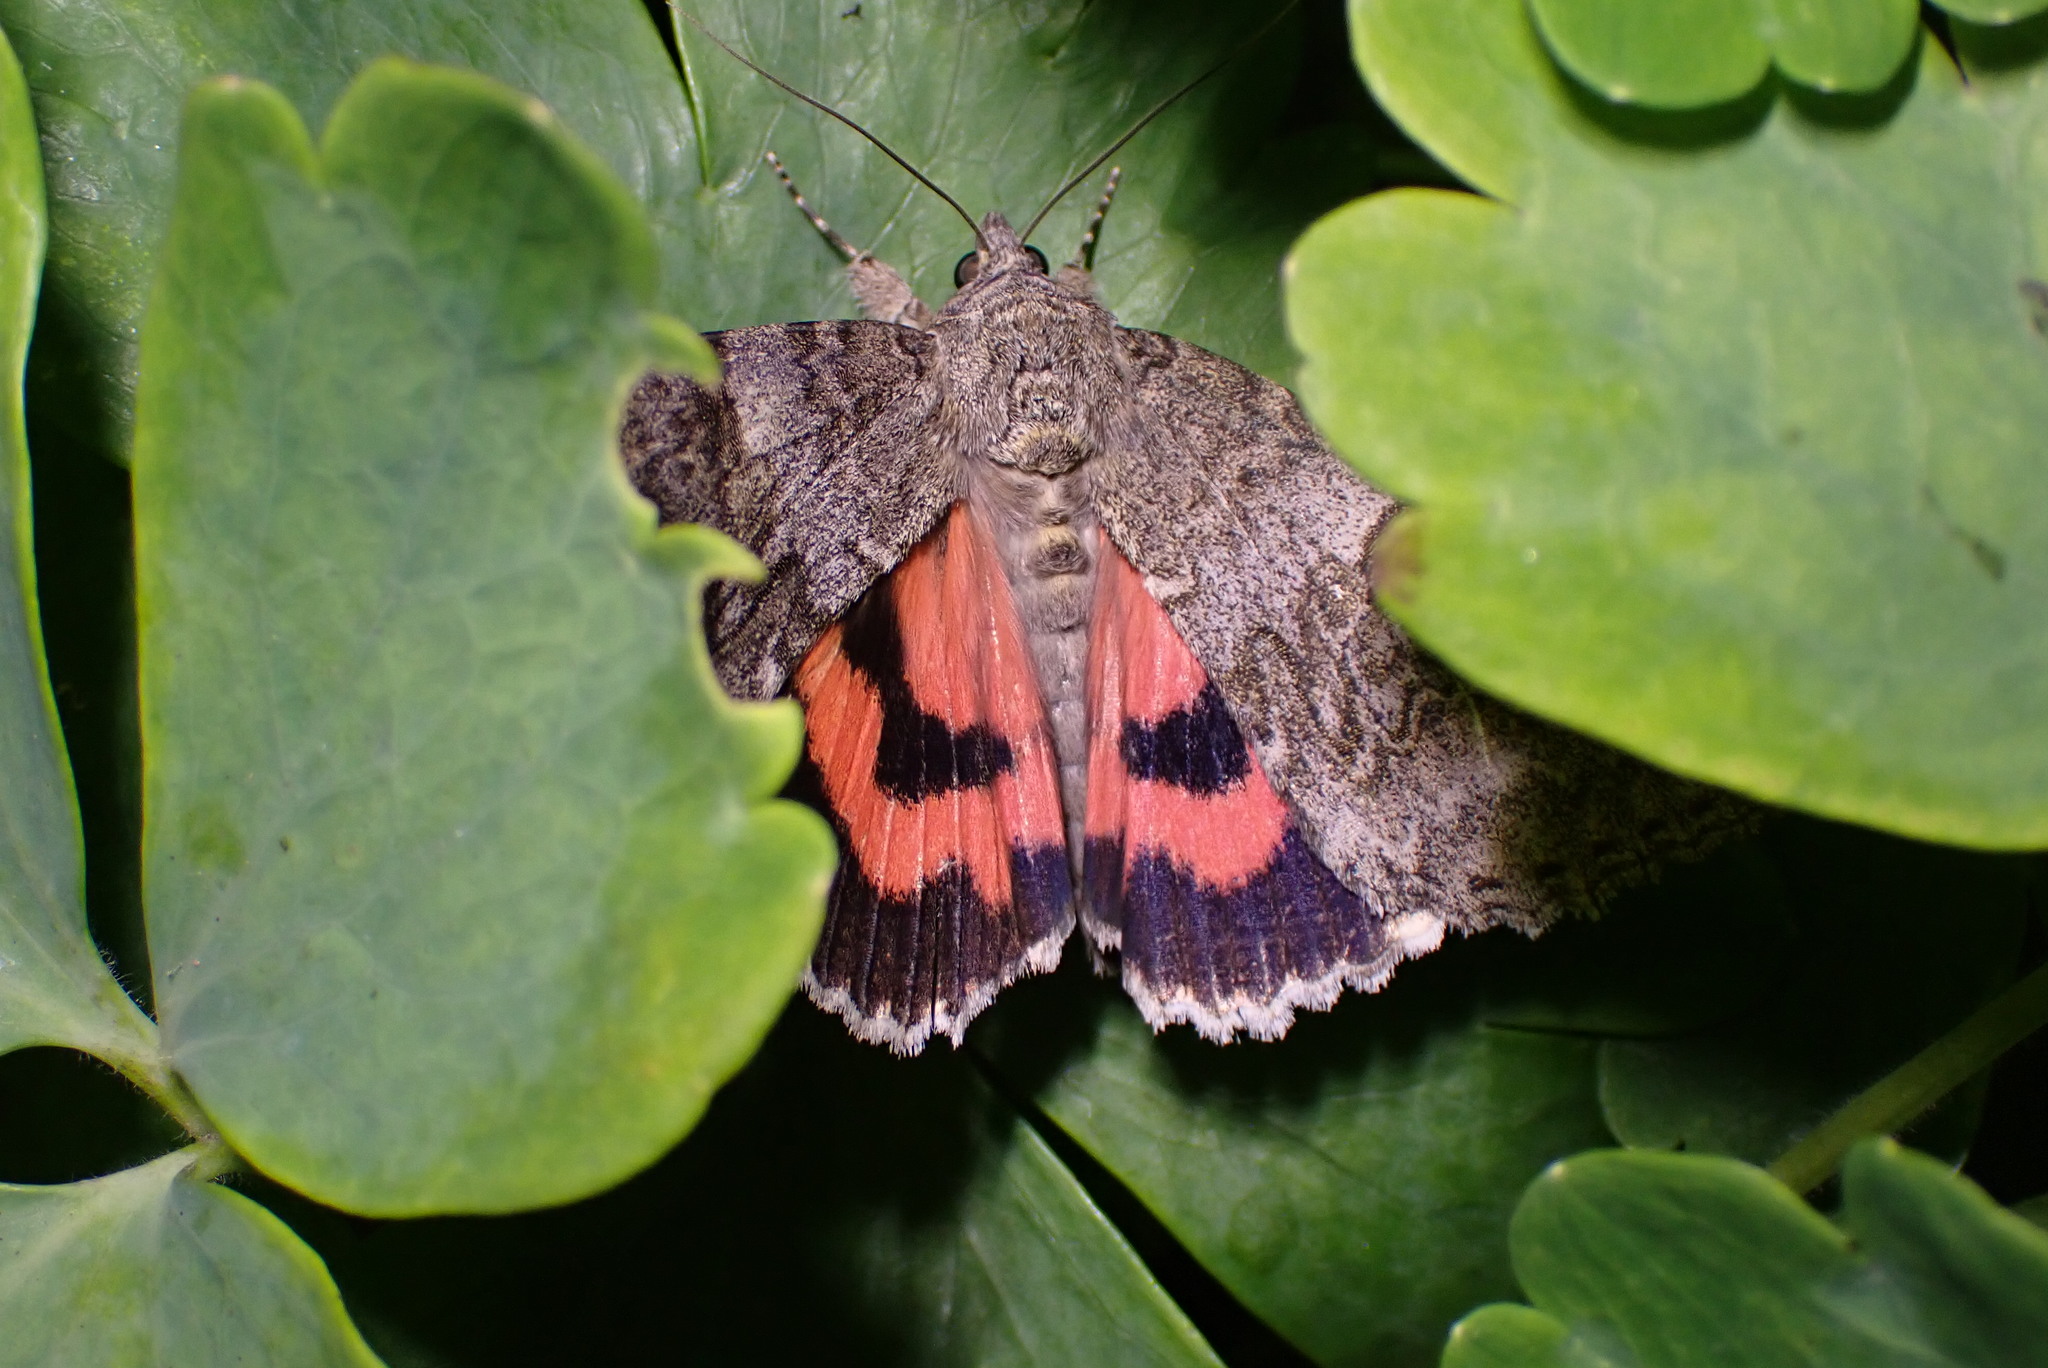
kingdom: Animalia
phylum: Arthropoda
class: Insecta
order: Lepidoptera
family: Erebidae
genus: Catocala
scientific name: Catocala nupta
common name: Red underwing
